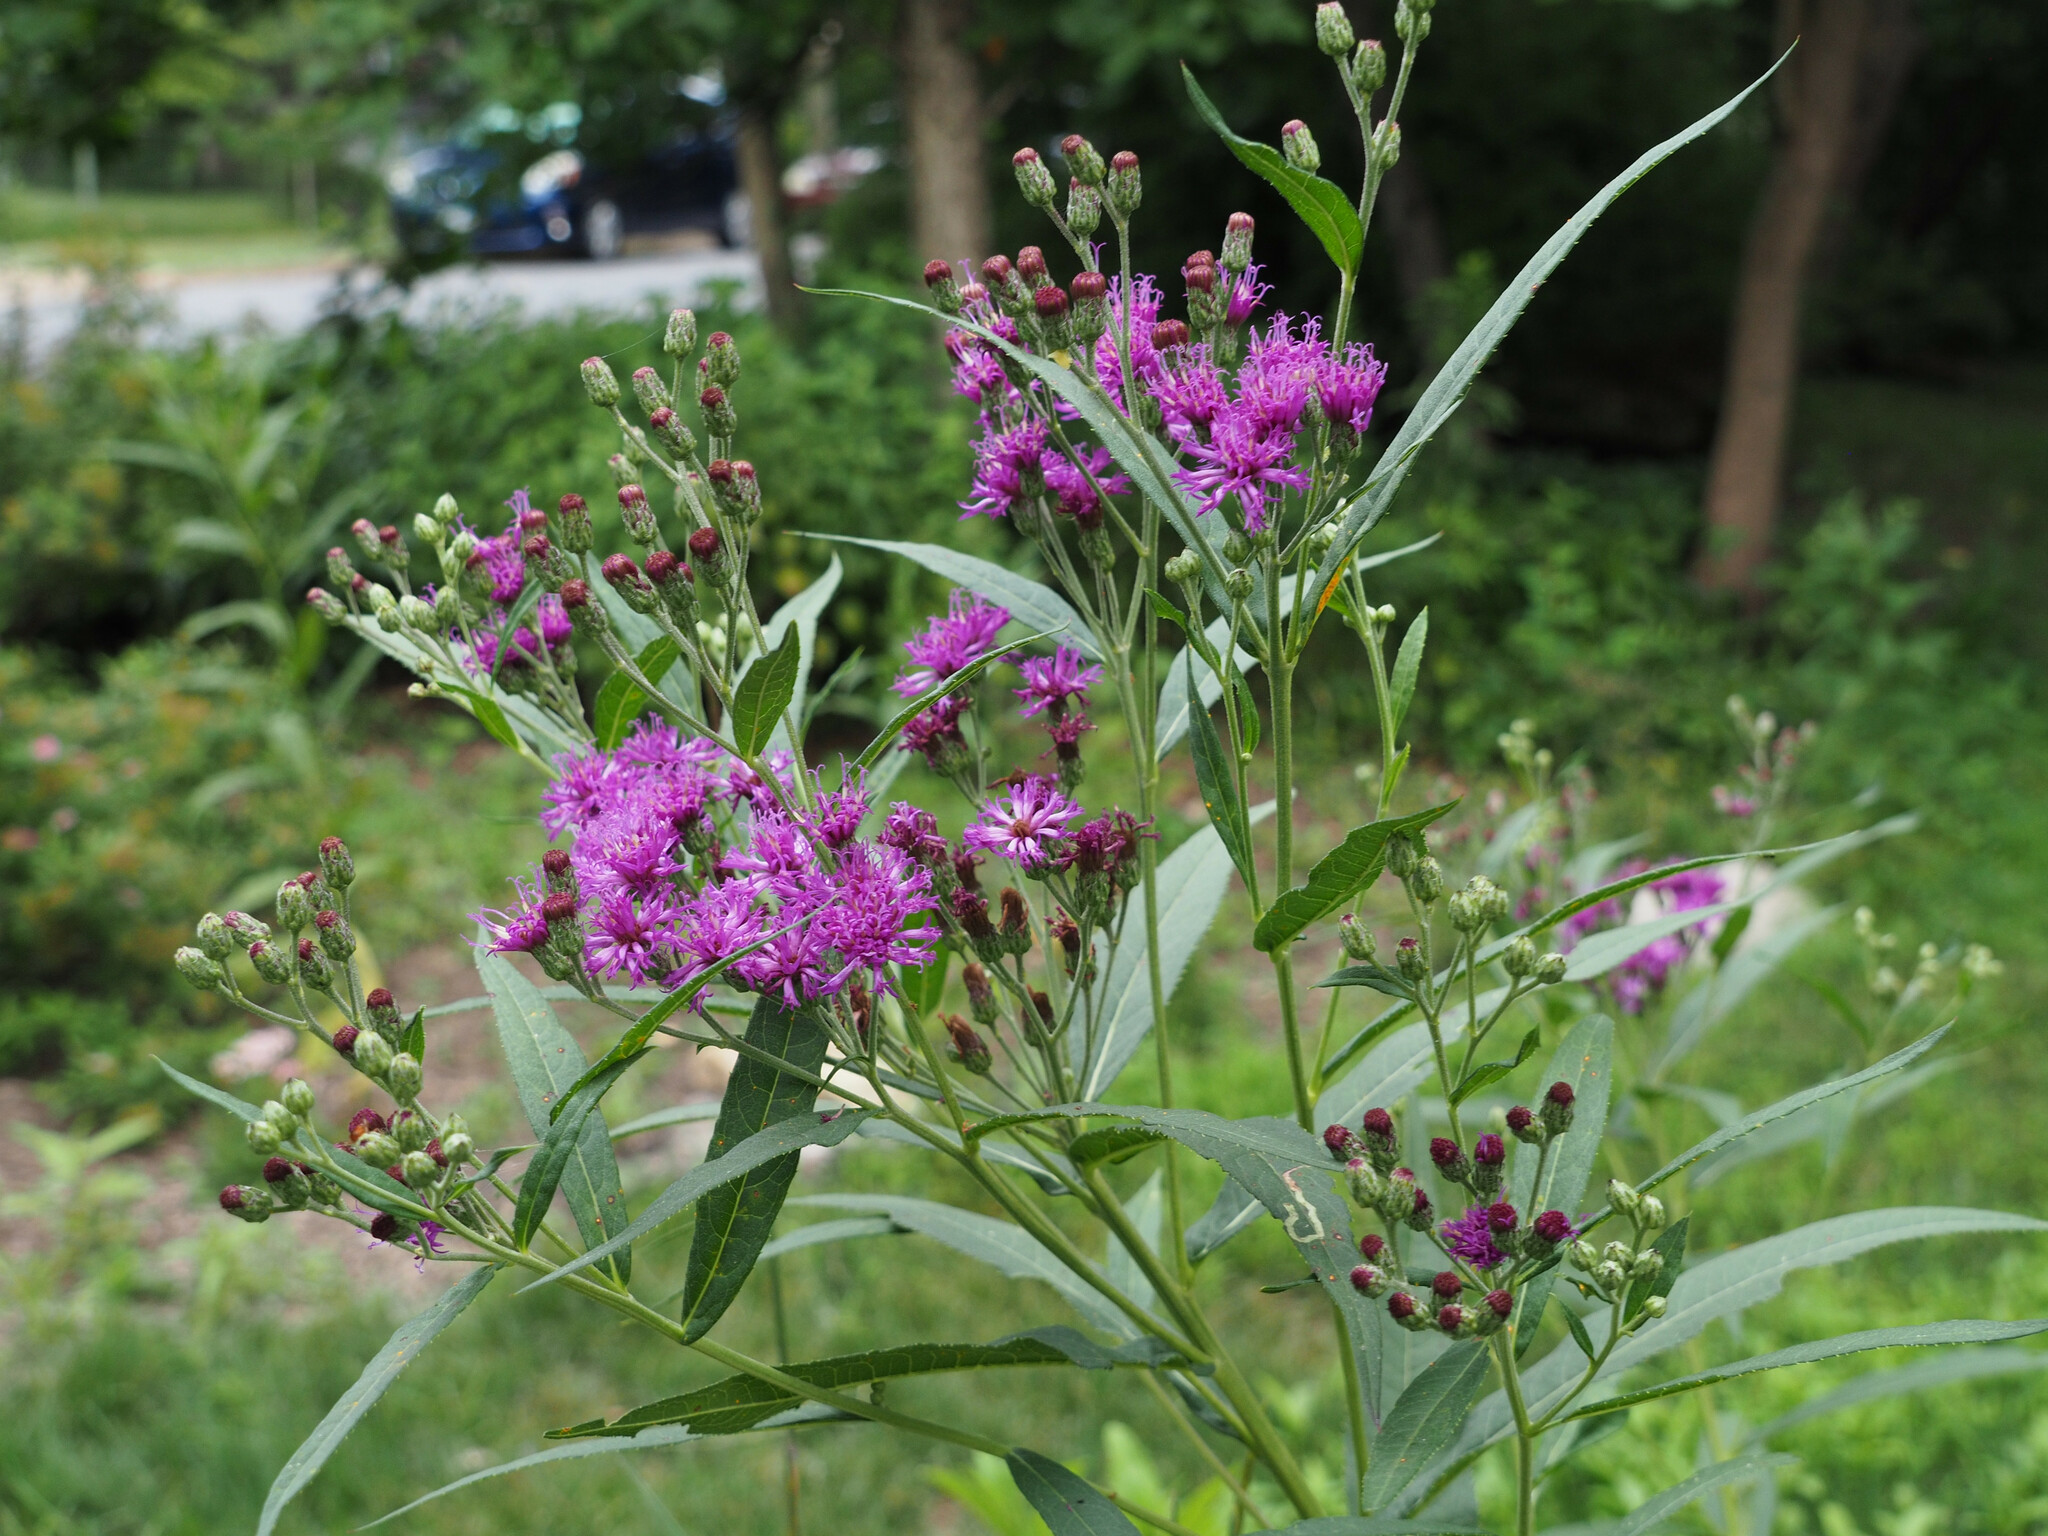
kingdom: Plantae
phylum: Tracheophyta
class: Magnoliopsida
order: Asterales
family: Asteraceae
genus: Vernonia
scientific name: Vernonia noveboracensis
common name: New york ironweed
